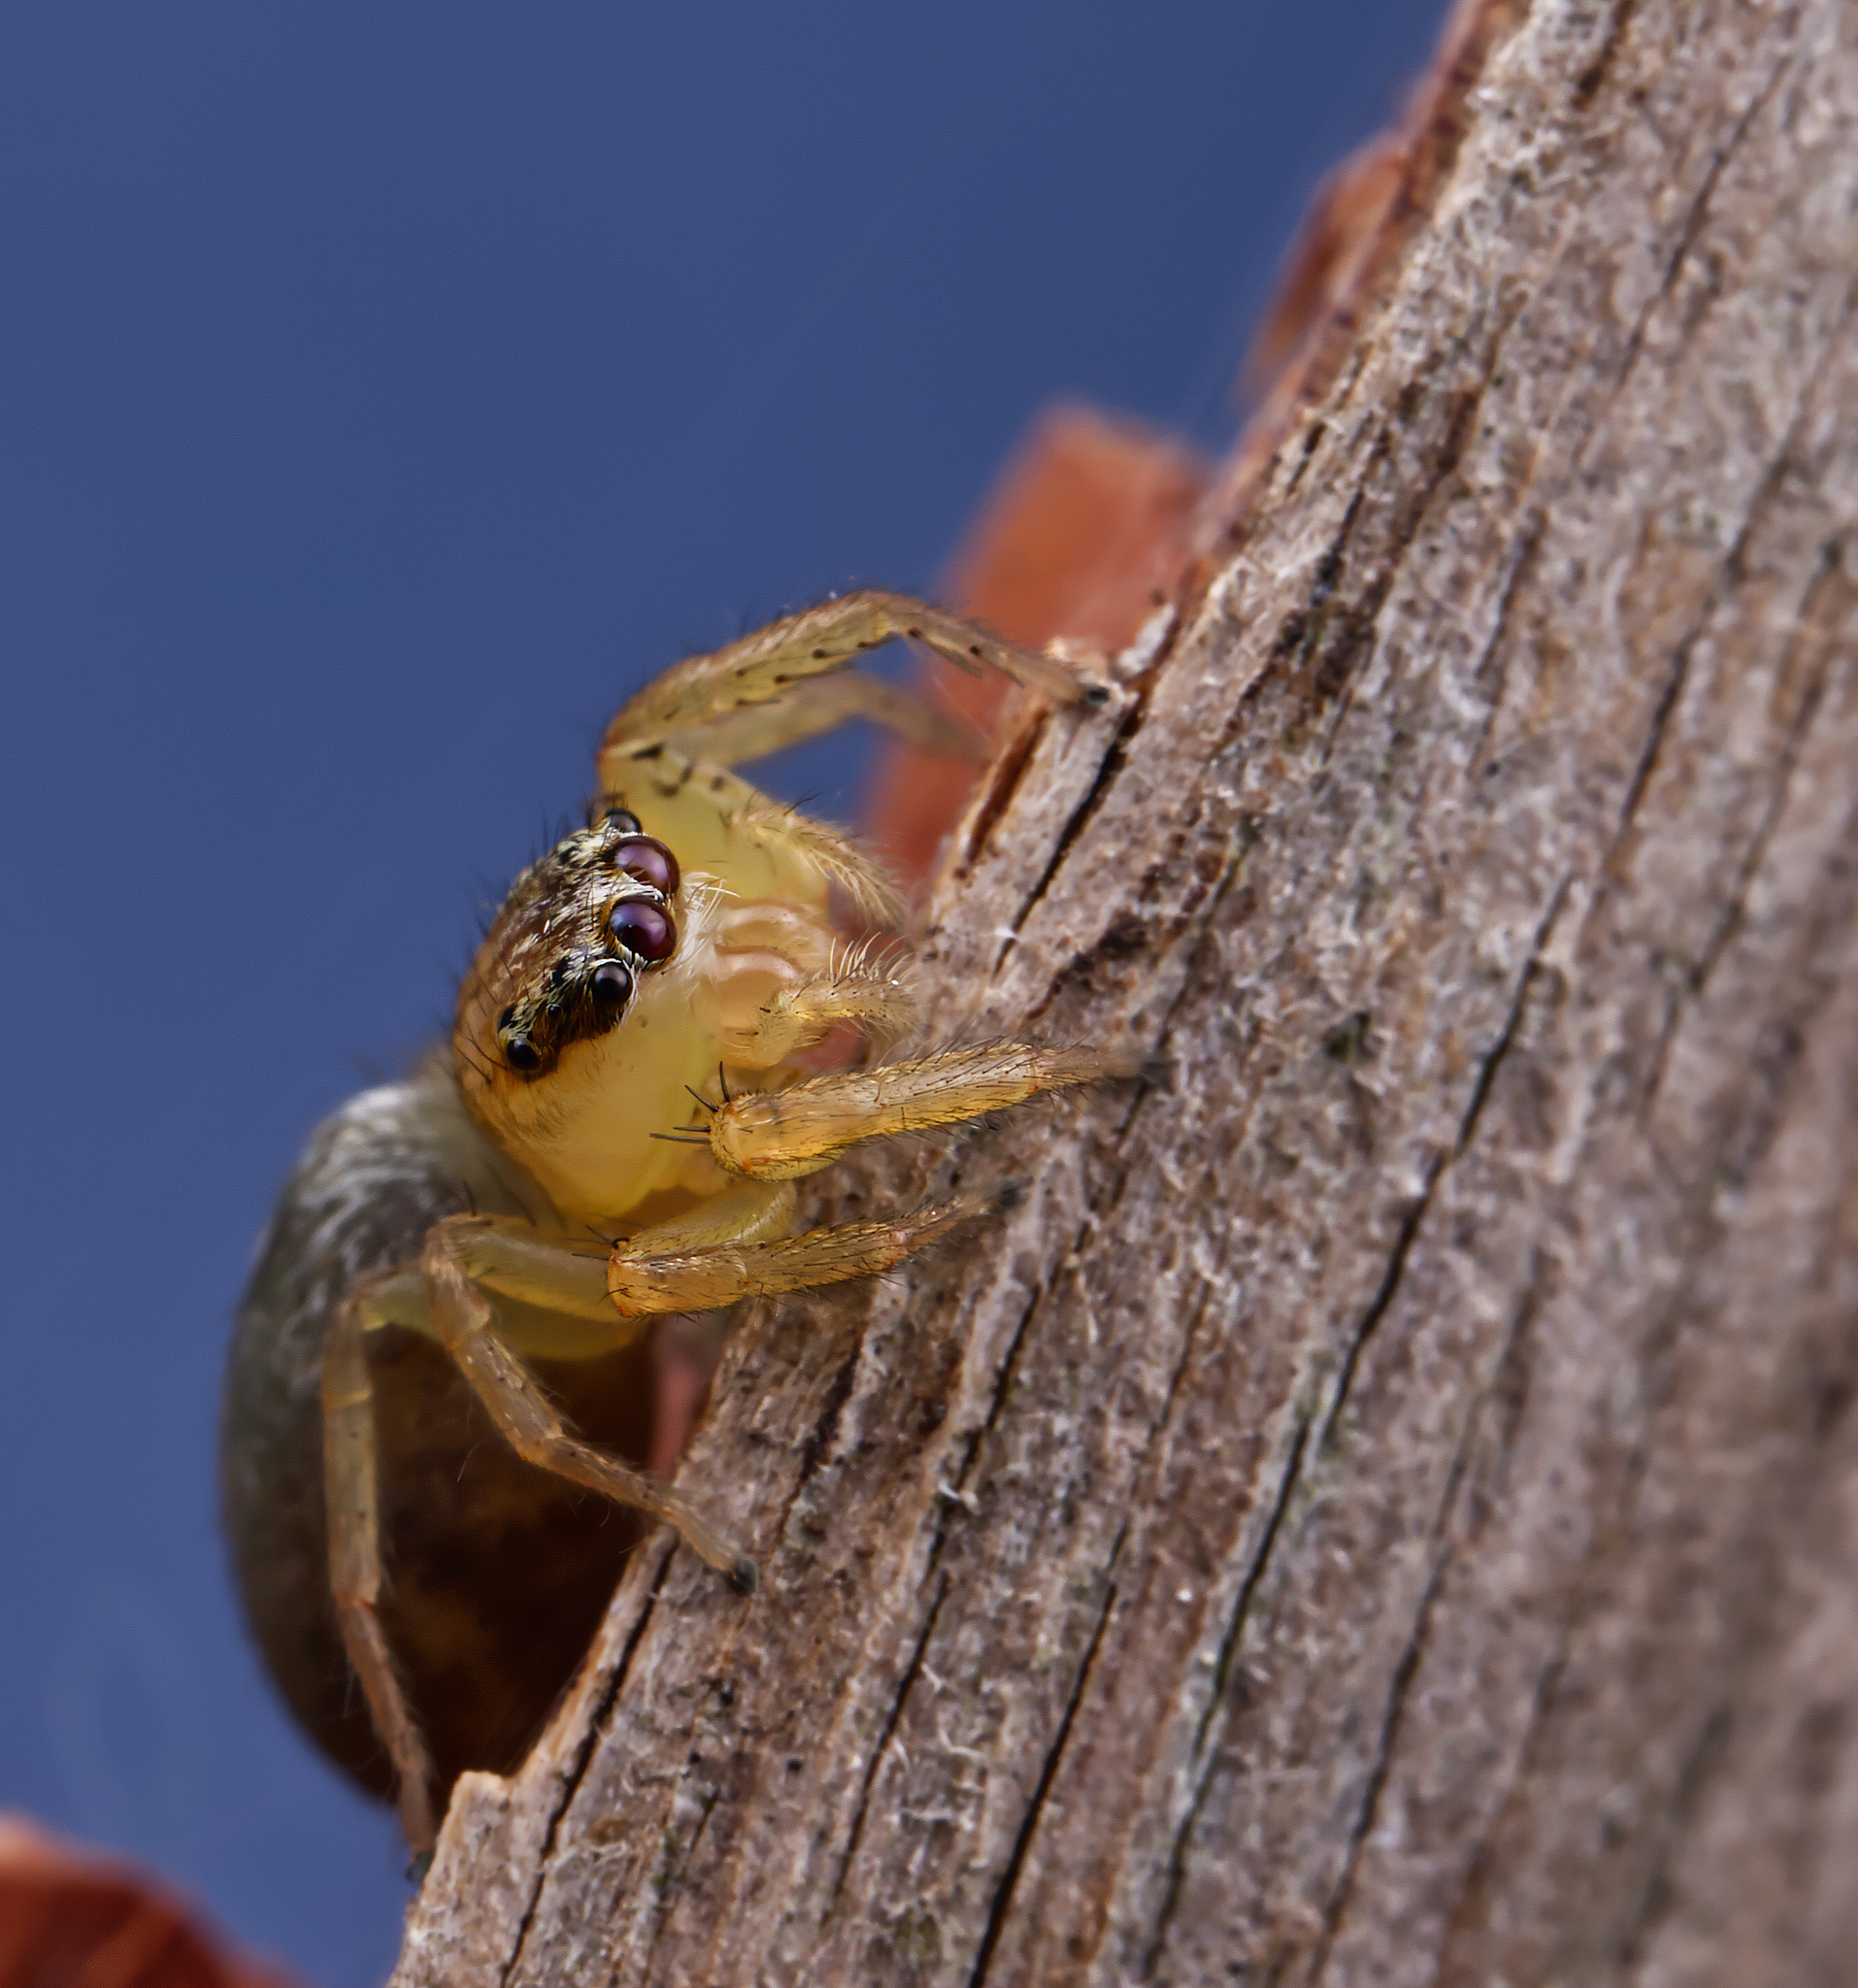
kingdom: Animalia
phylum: Arthropoda
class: Arachnida
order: Araneae
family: Salticidae
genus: Paramaevia
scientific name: Paramaevia hobbsae
